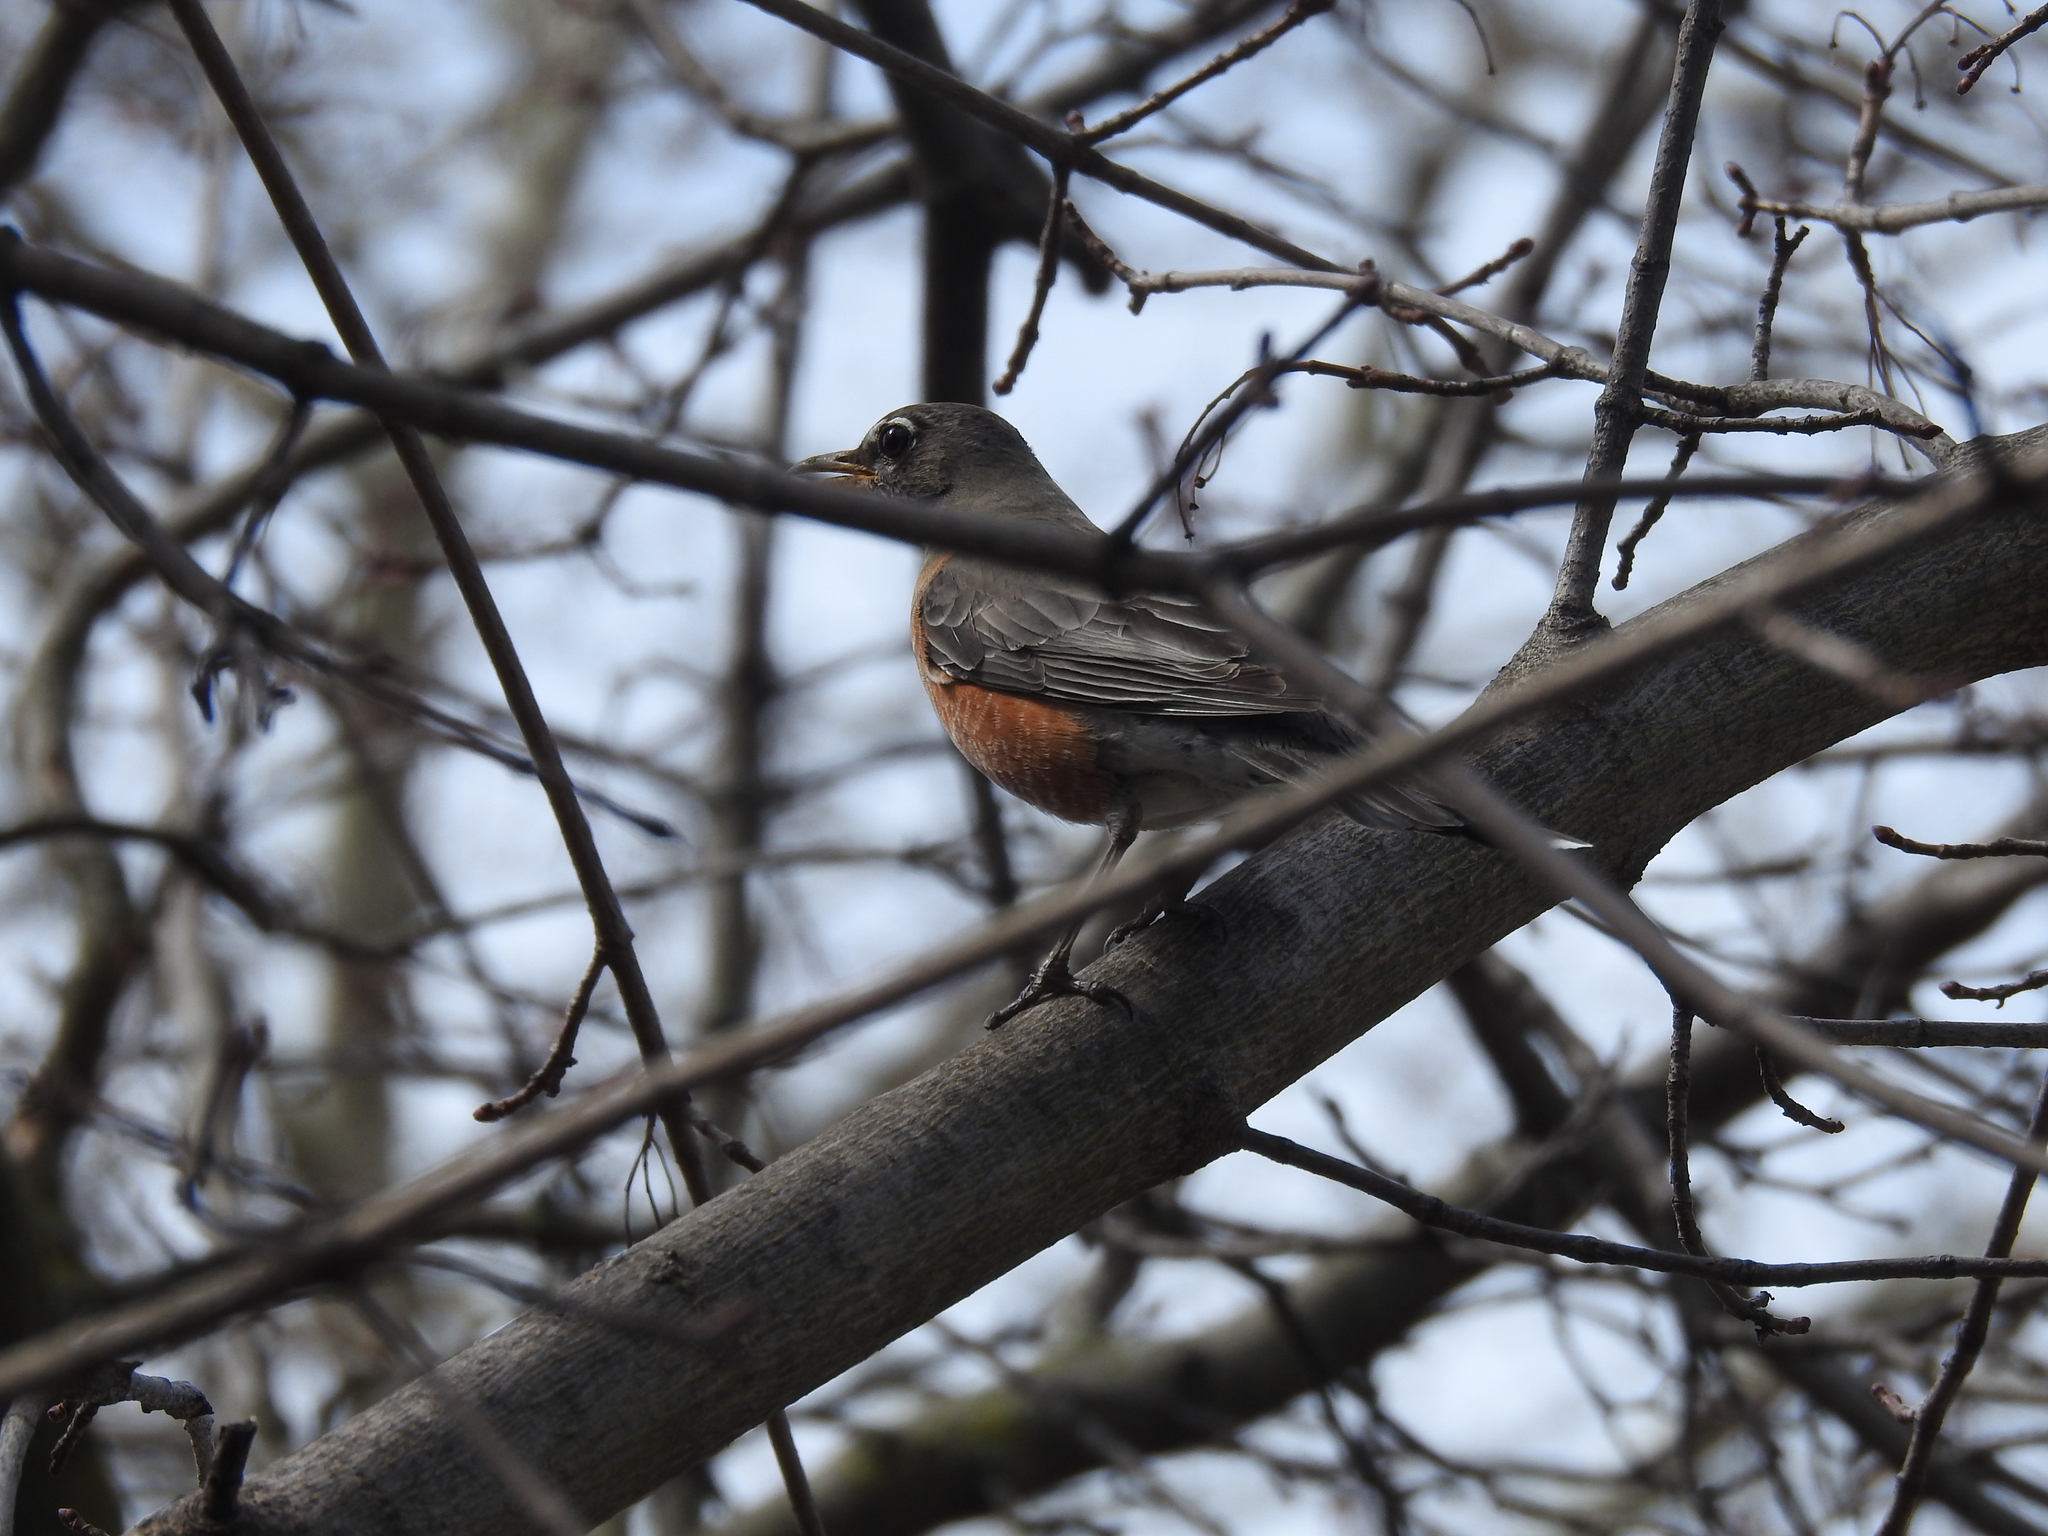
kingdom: Animalia
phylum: Chordata
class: Aves
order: Passeriformes
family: Turdidae
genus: Turdus
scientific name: Turdus migratorius
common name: American robin
